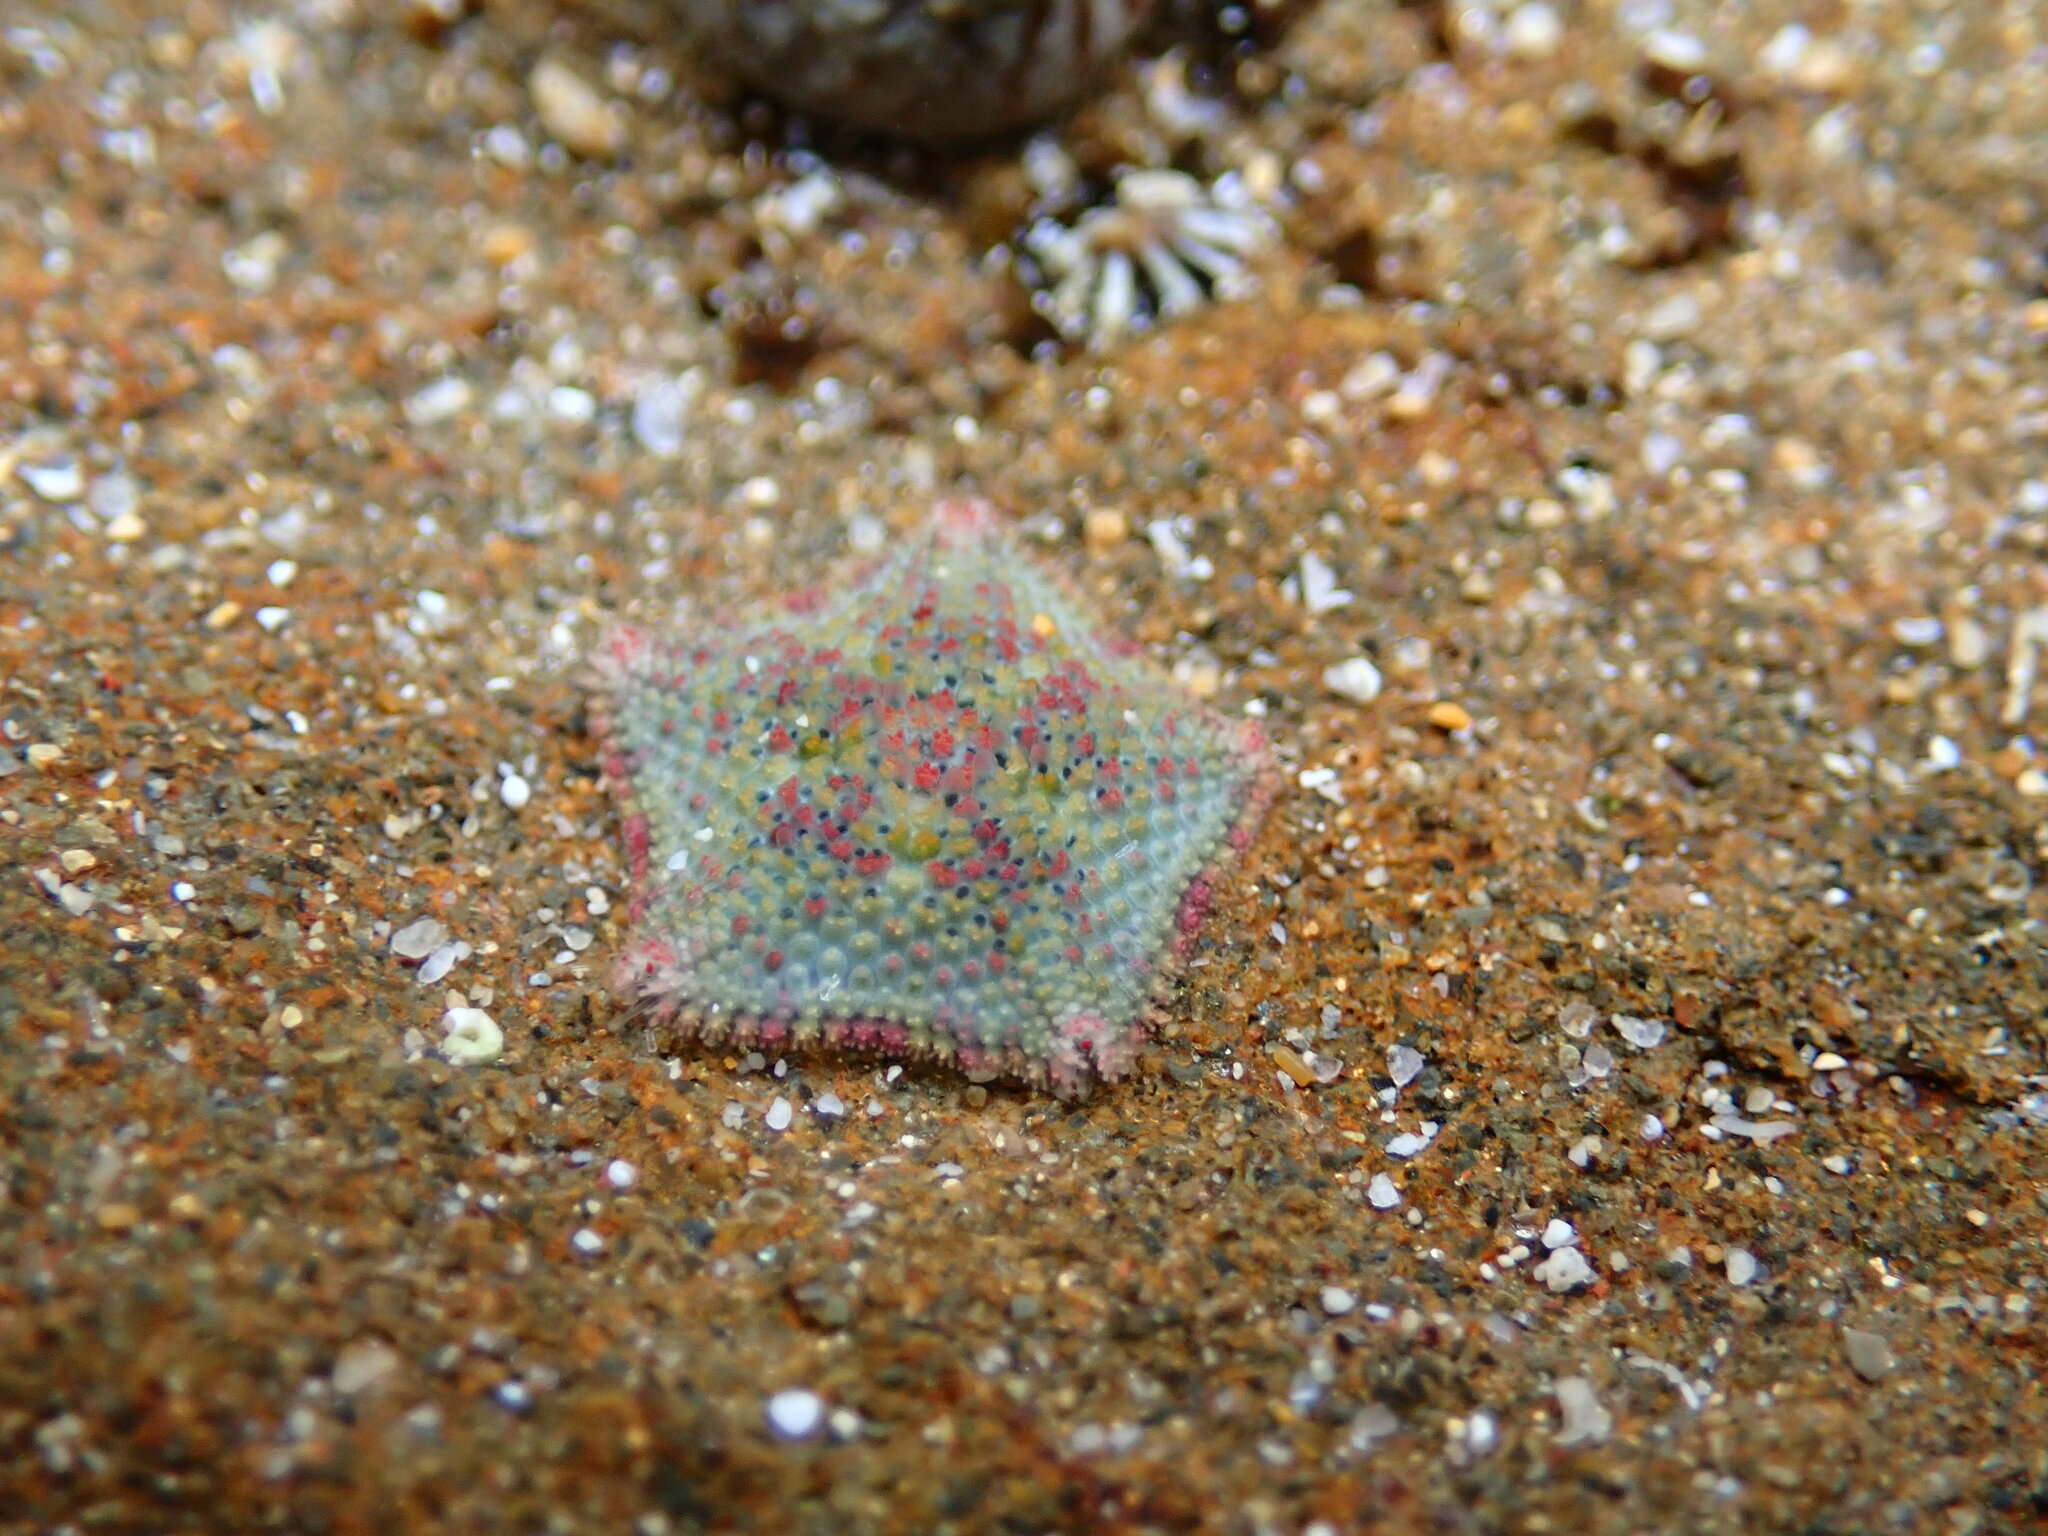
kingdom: Animalia
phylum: Echinodermata
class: Asteroidea
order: Valvatida
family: Asterinidae
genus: Parvulastra
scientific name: Parvulastra exigua
